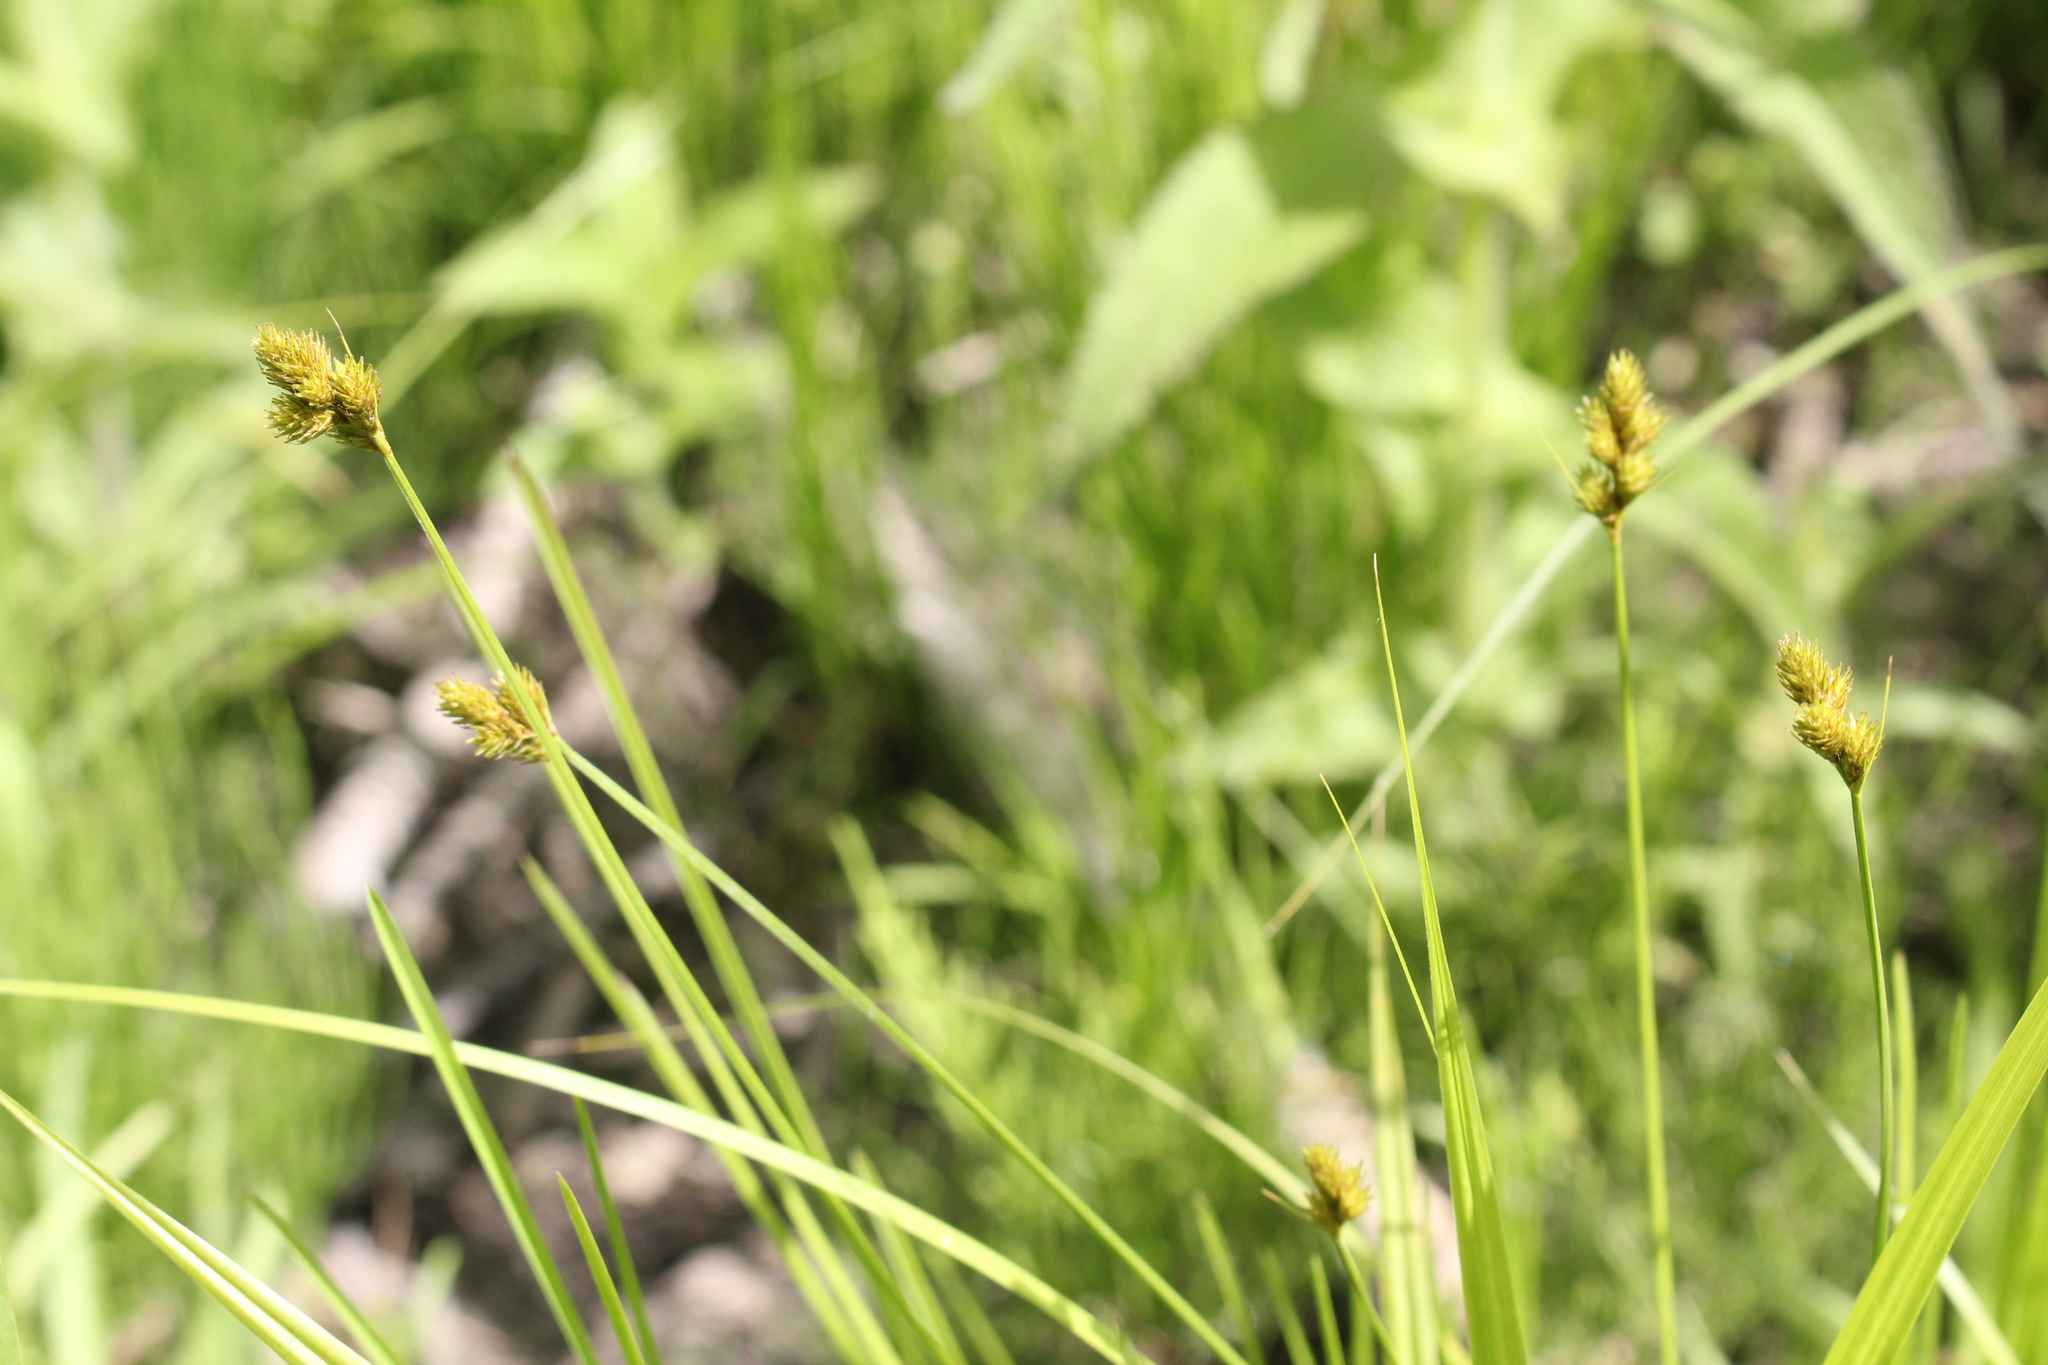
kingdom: Plantae
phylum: Tracheophyta
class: Liliopsida
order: Poales
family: Cyperaceae
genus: Carex
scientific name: Carex bebbii
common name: Bebb's sedge
